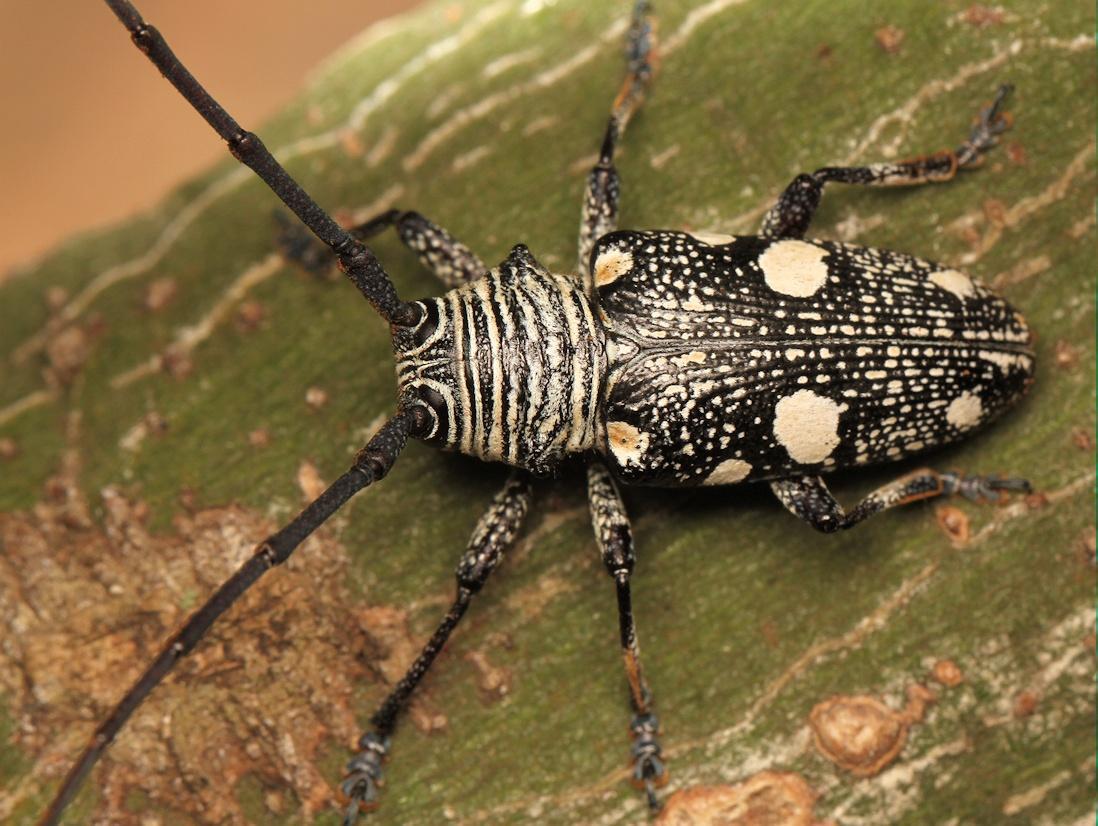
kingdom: Animalia
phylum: Arthropoda
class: Insecta
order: Coleoptera
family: Cerambycidae
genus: Zographus
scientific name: Zographus nivisparsus
